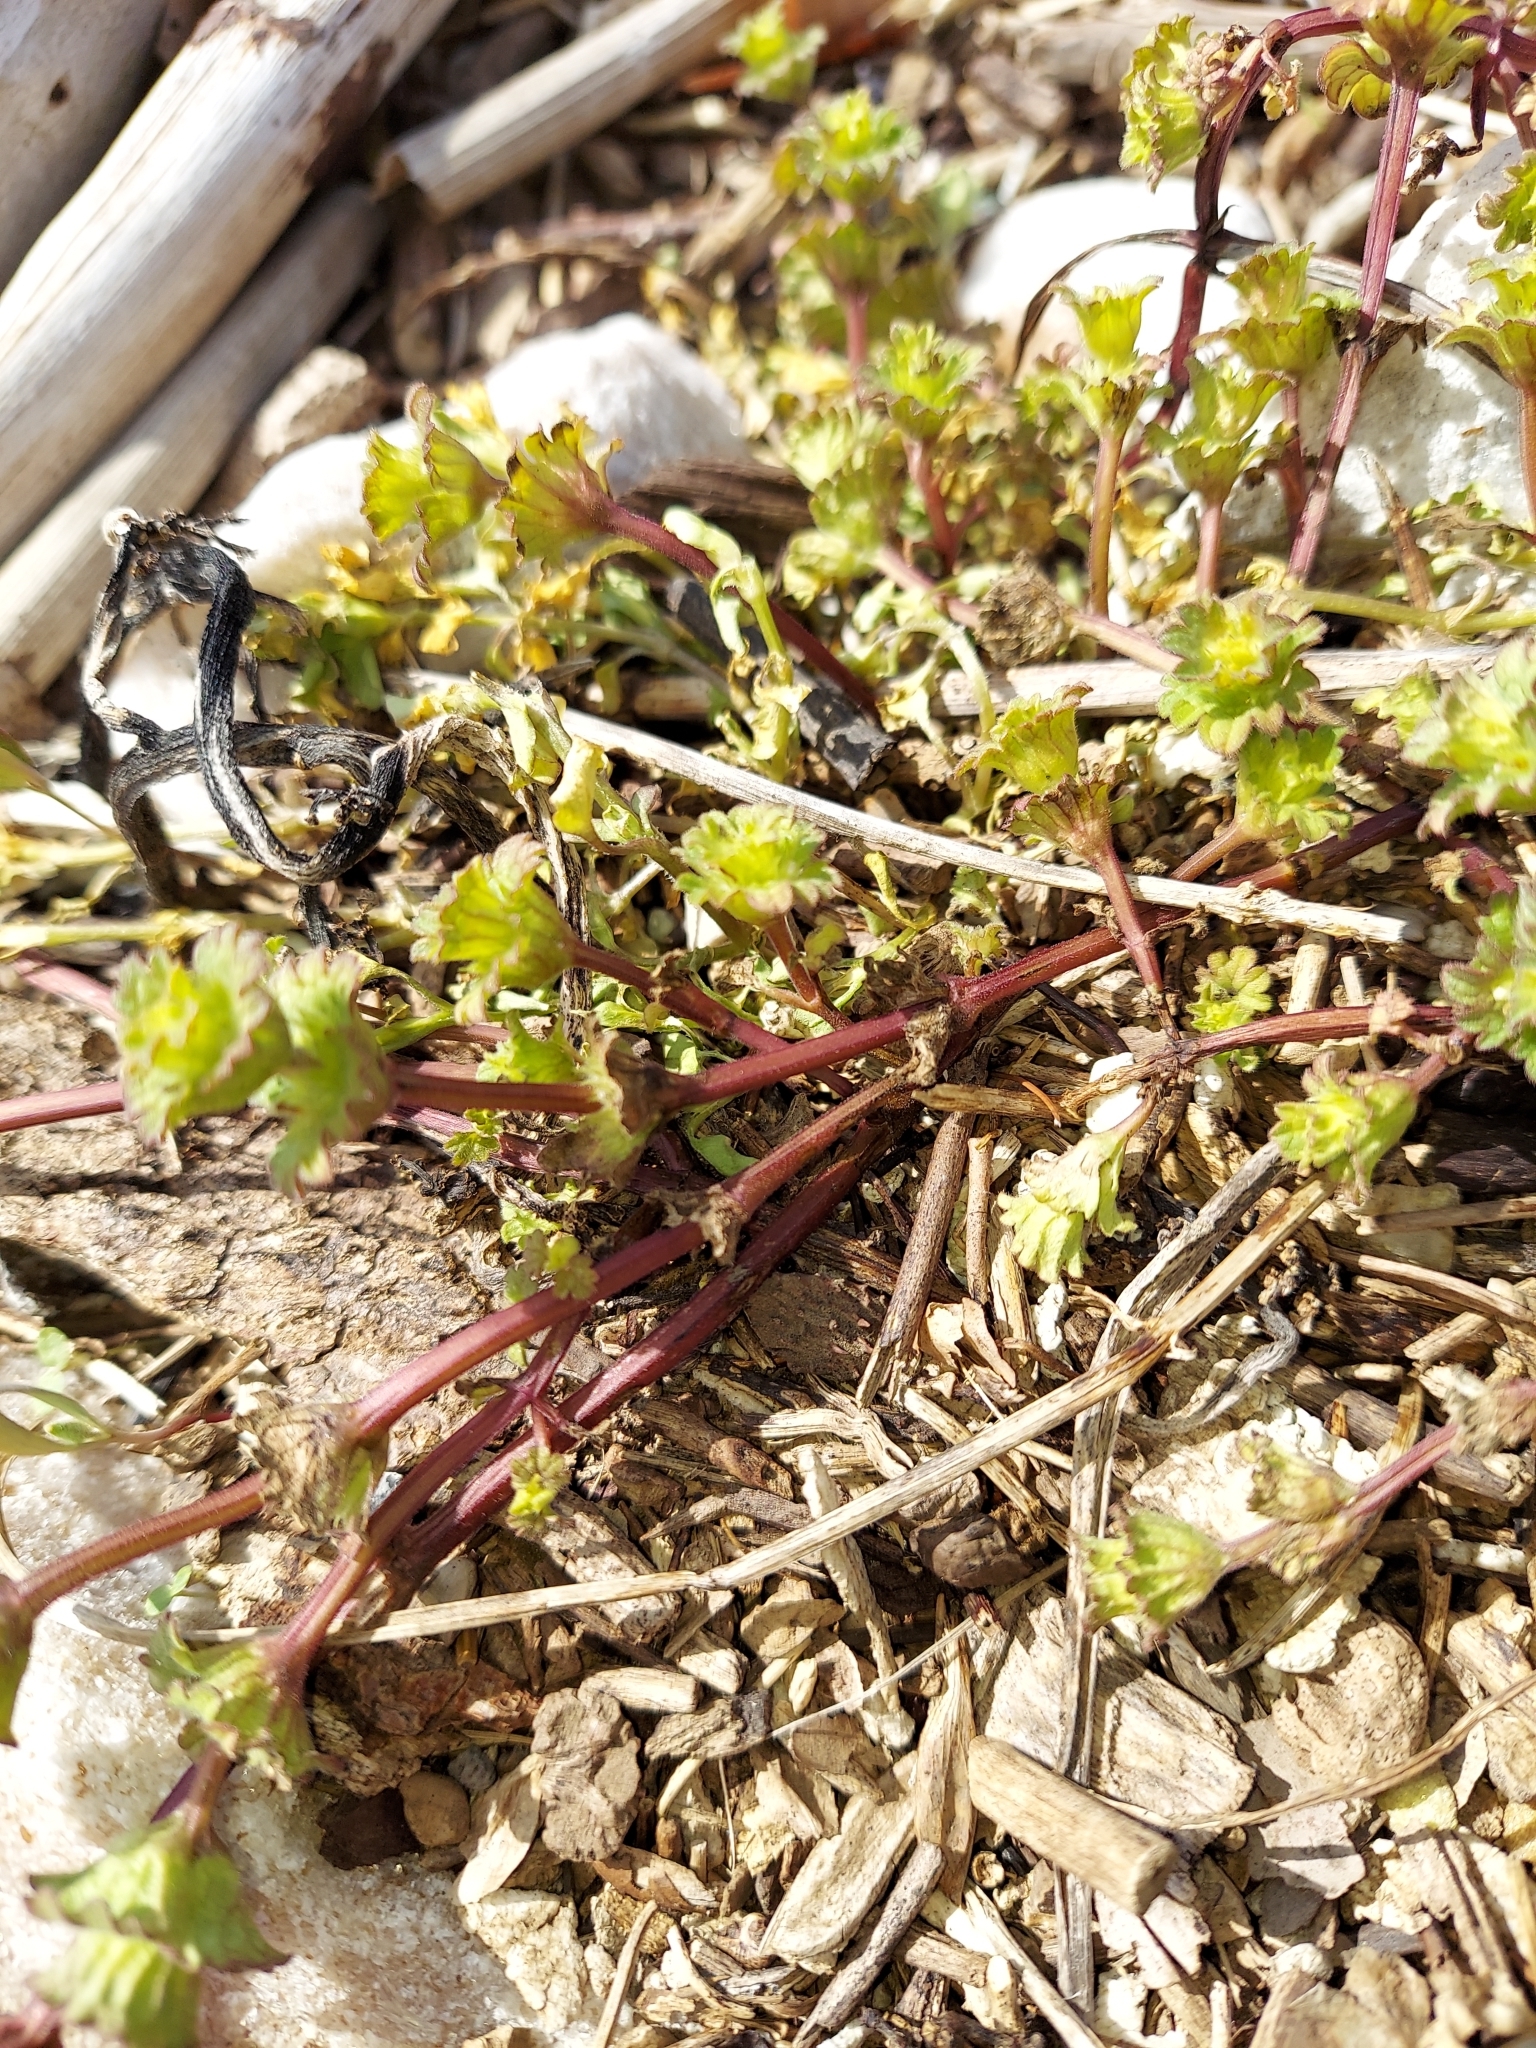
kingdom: Plantae
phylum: Tracheophyta
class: Magnoliopsida
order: Lamiales
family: Lamiaceae
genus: Lamium
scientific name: Lamium amplexicaule
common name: Henbit dead-nettle
